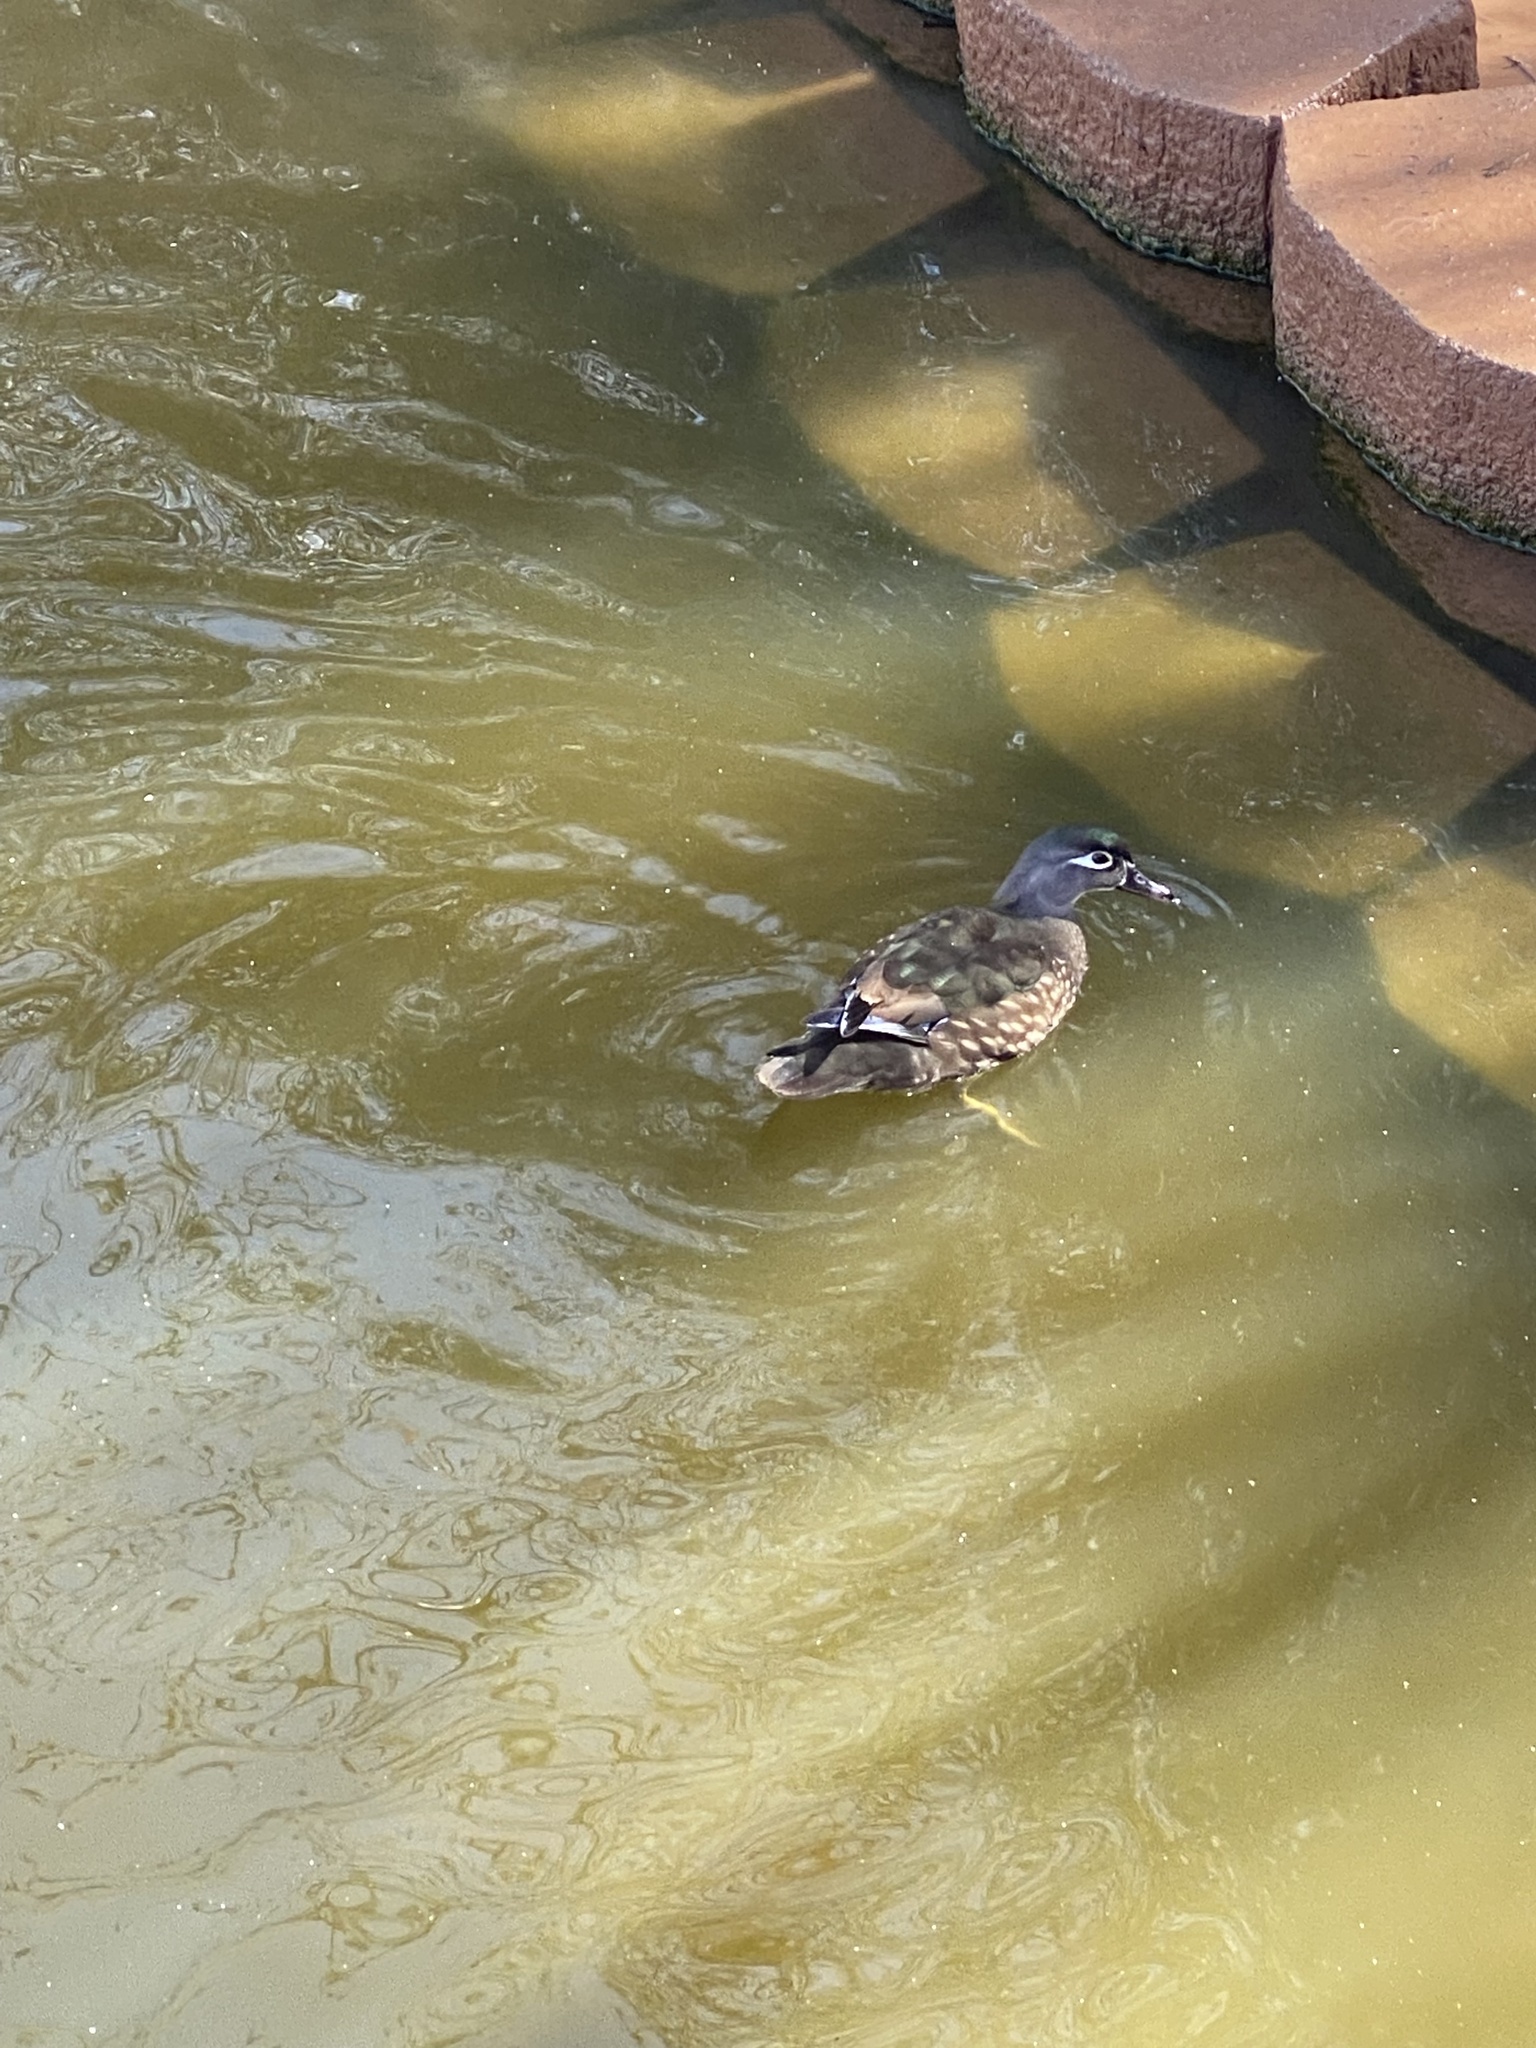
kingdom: Animalia
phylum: Chordata
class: Aves
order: Anseriformes
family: Anatidae
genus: Aix
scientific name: Aix sponsa
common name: Wood duck
